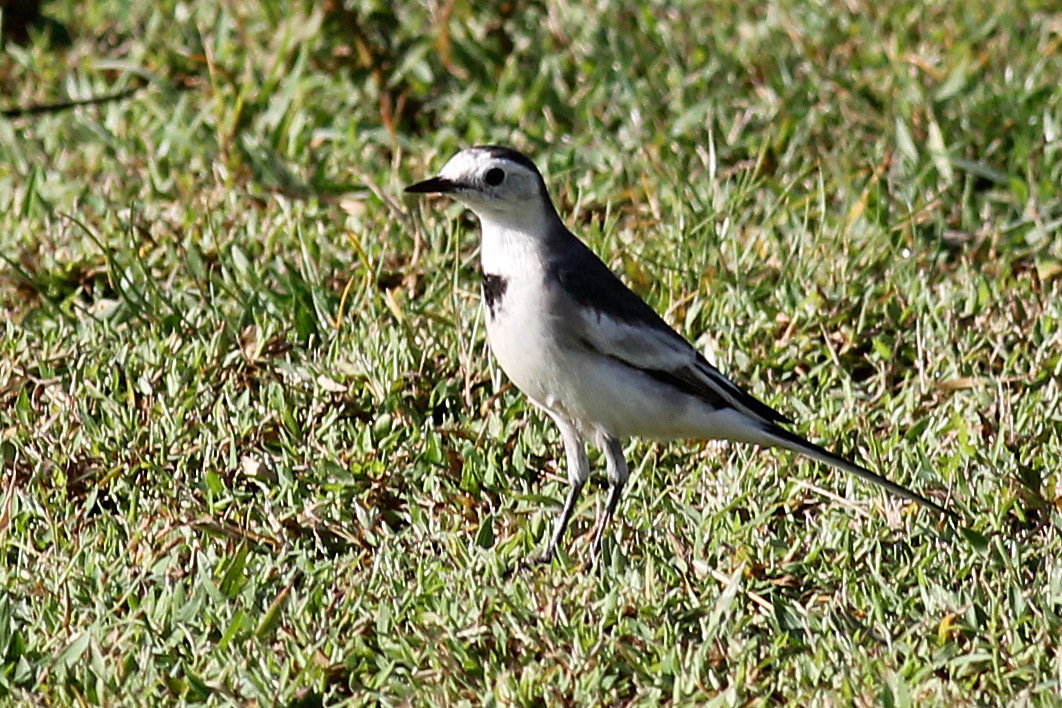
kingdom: Animalia
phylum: Chordata
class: Aves
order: Passeriformes
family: Motacillidae
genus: Motacilla
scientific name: Motacilla alba
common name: White wagtail
